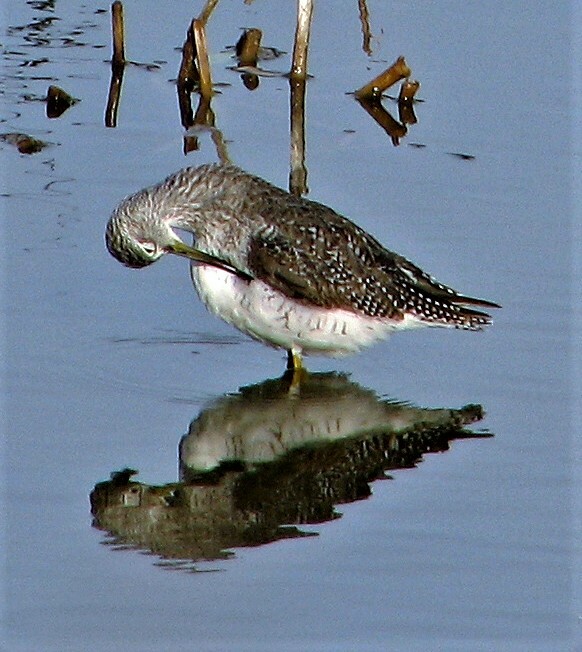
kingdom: Animalia
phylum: Chordata
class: Aves
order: Charadriiformes
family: Scolopacidae
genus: Tringa
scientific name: Tringa melanoleuca
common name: Greater yellowlegs
